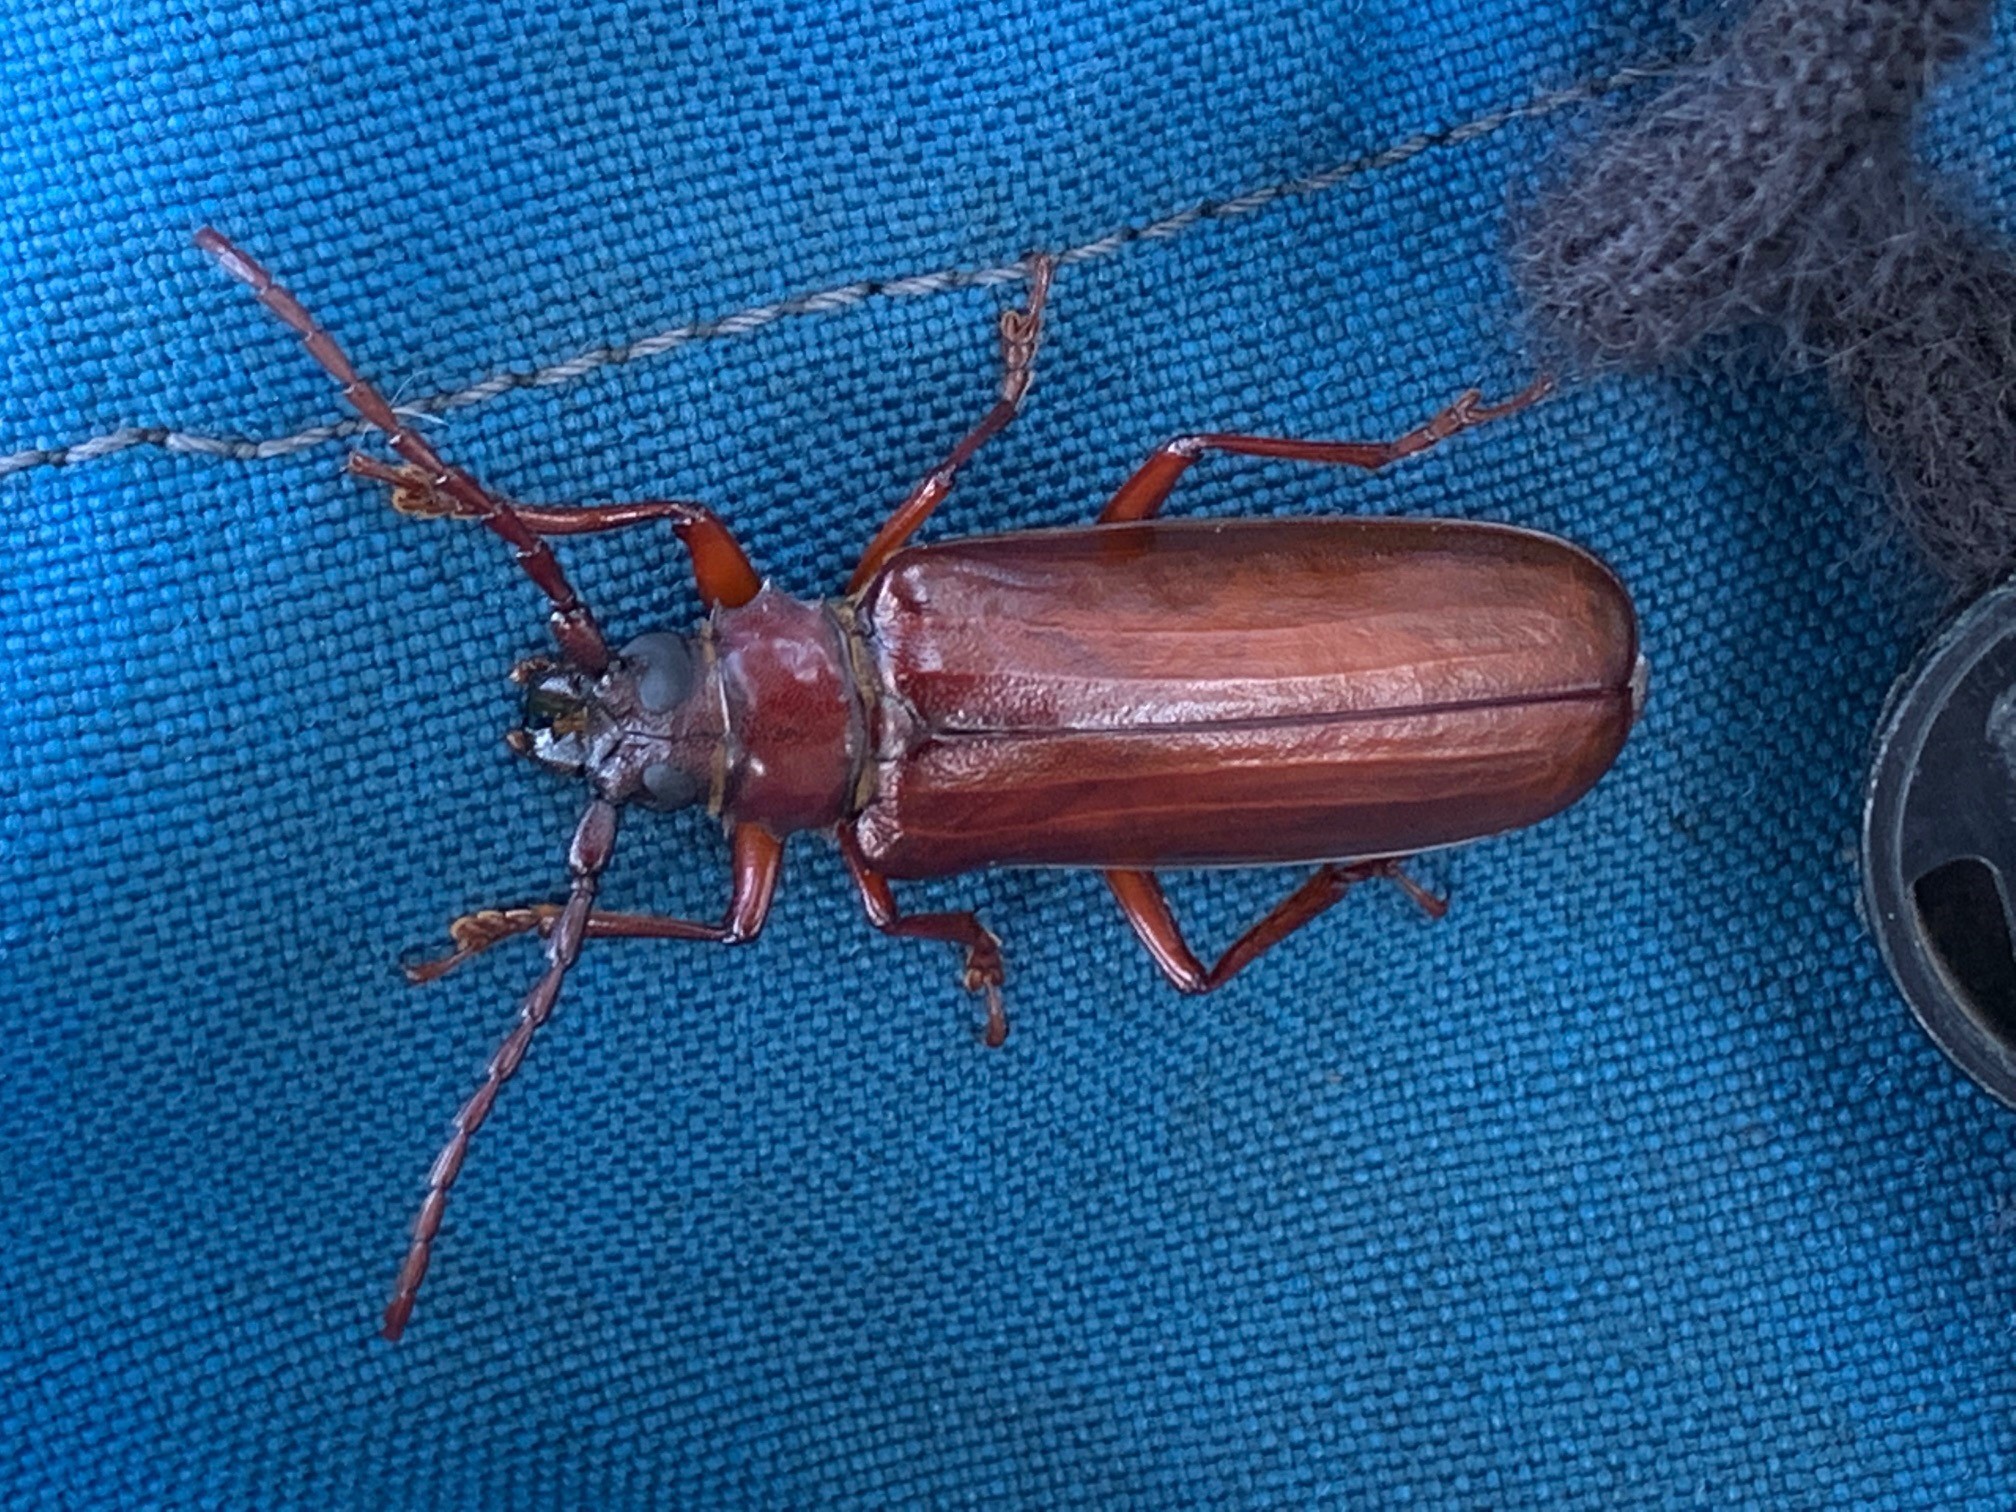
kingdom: Animalia
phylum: Arthropoda
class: Insecta
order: Coleoptera
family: Cerambycidae
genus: Orthosoma
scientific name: Orthosoma brunneum
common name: Brown prionid beetle
